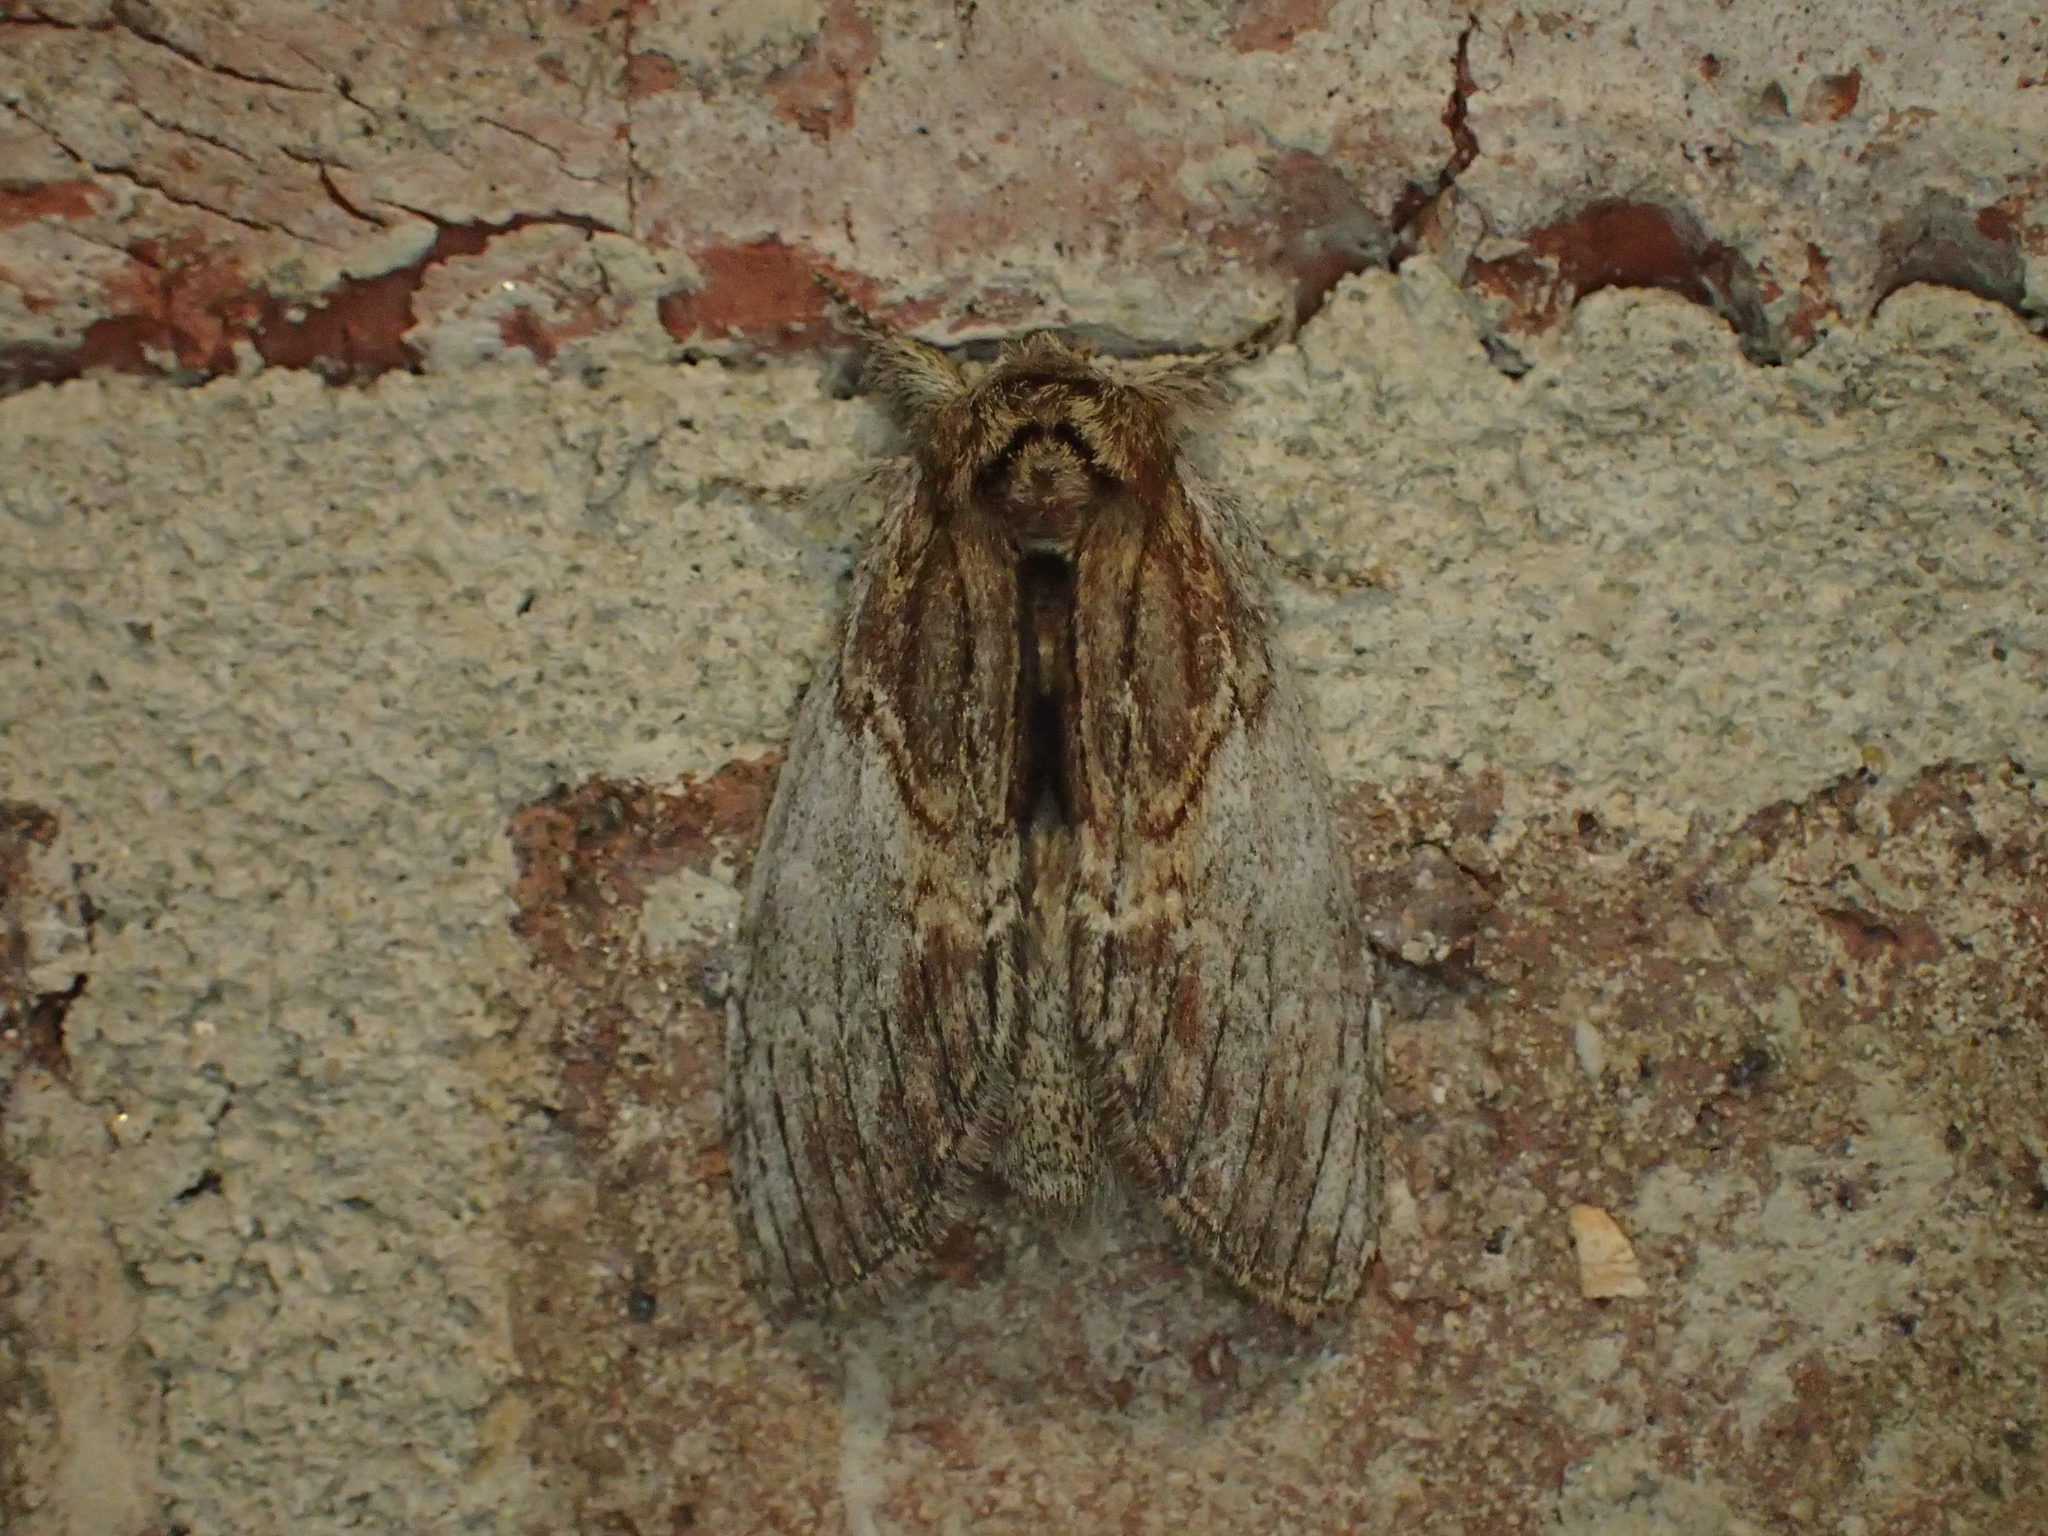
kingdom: Animalia
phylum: Arthropoda
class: Insecta
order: Lepidoptera
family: Notodontidae
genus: Peridea
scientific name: Peridea basitriens
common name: Oval-based prominent
